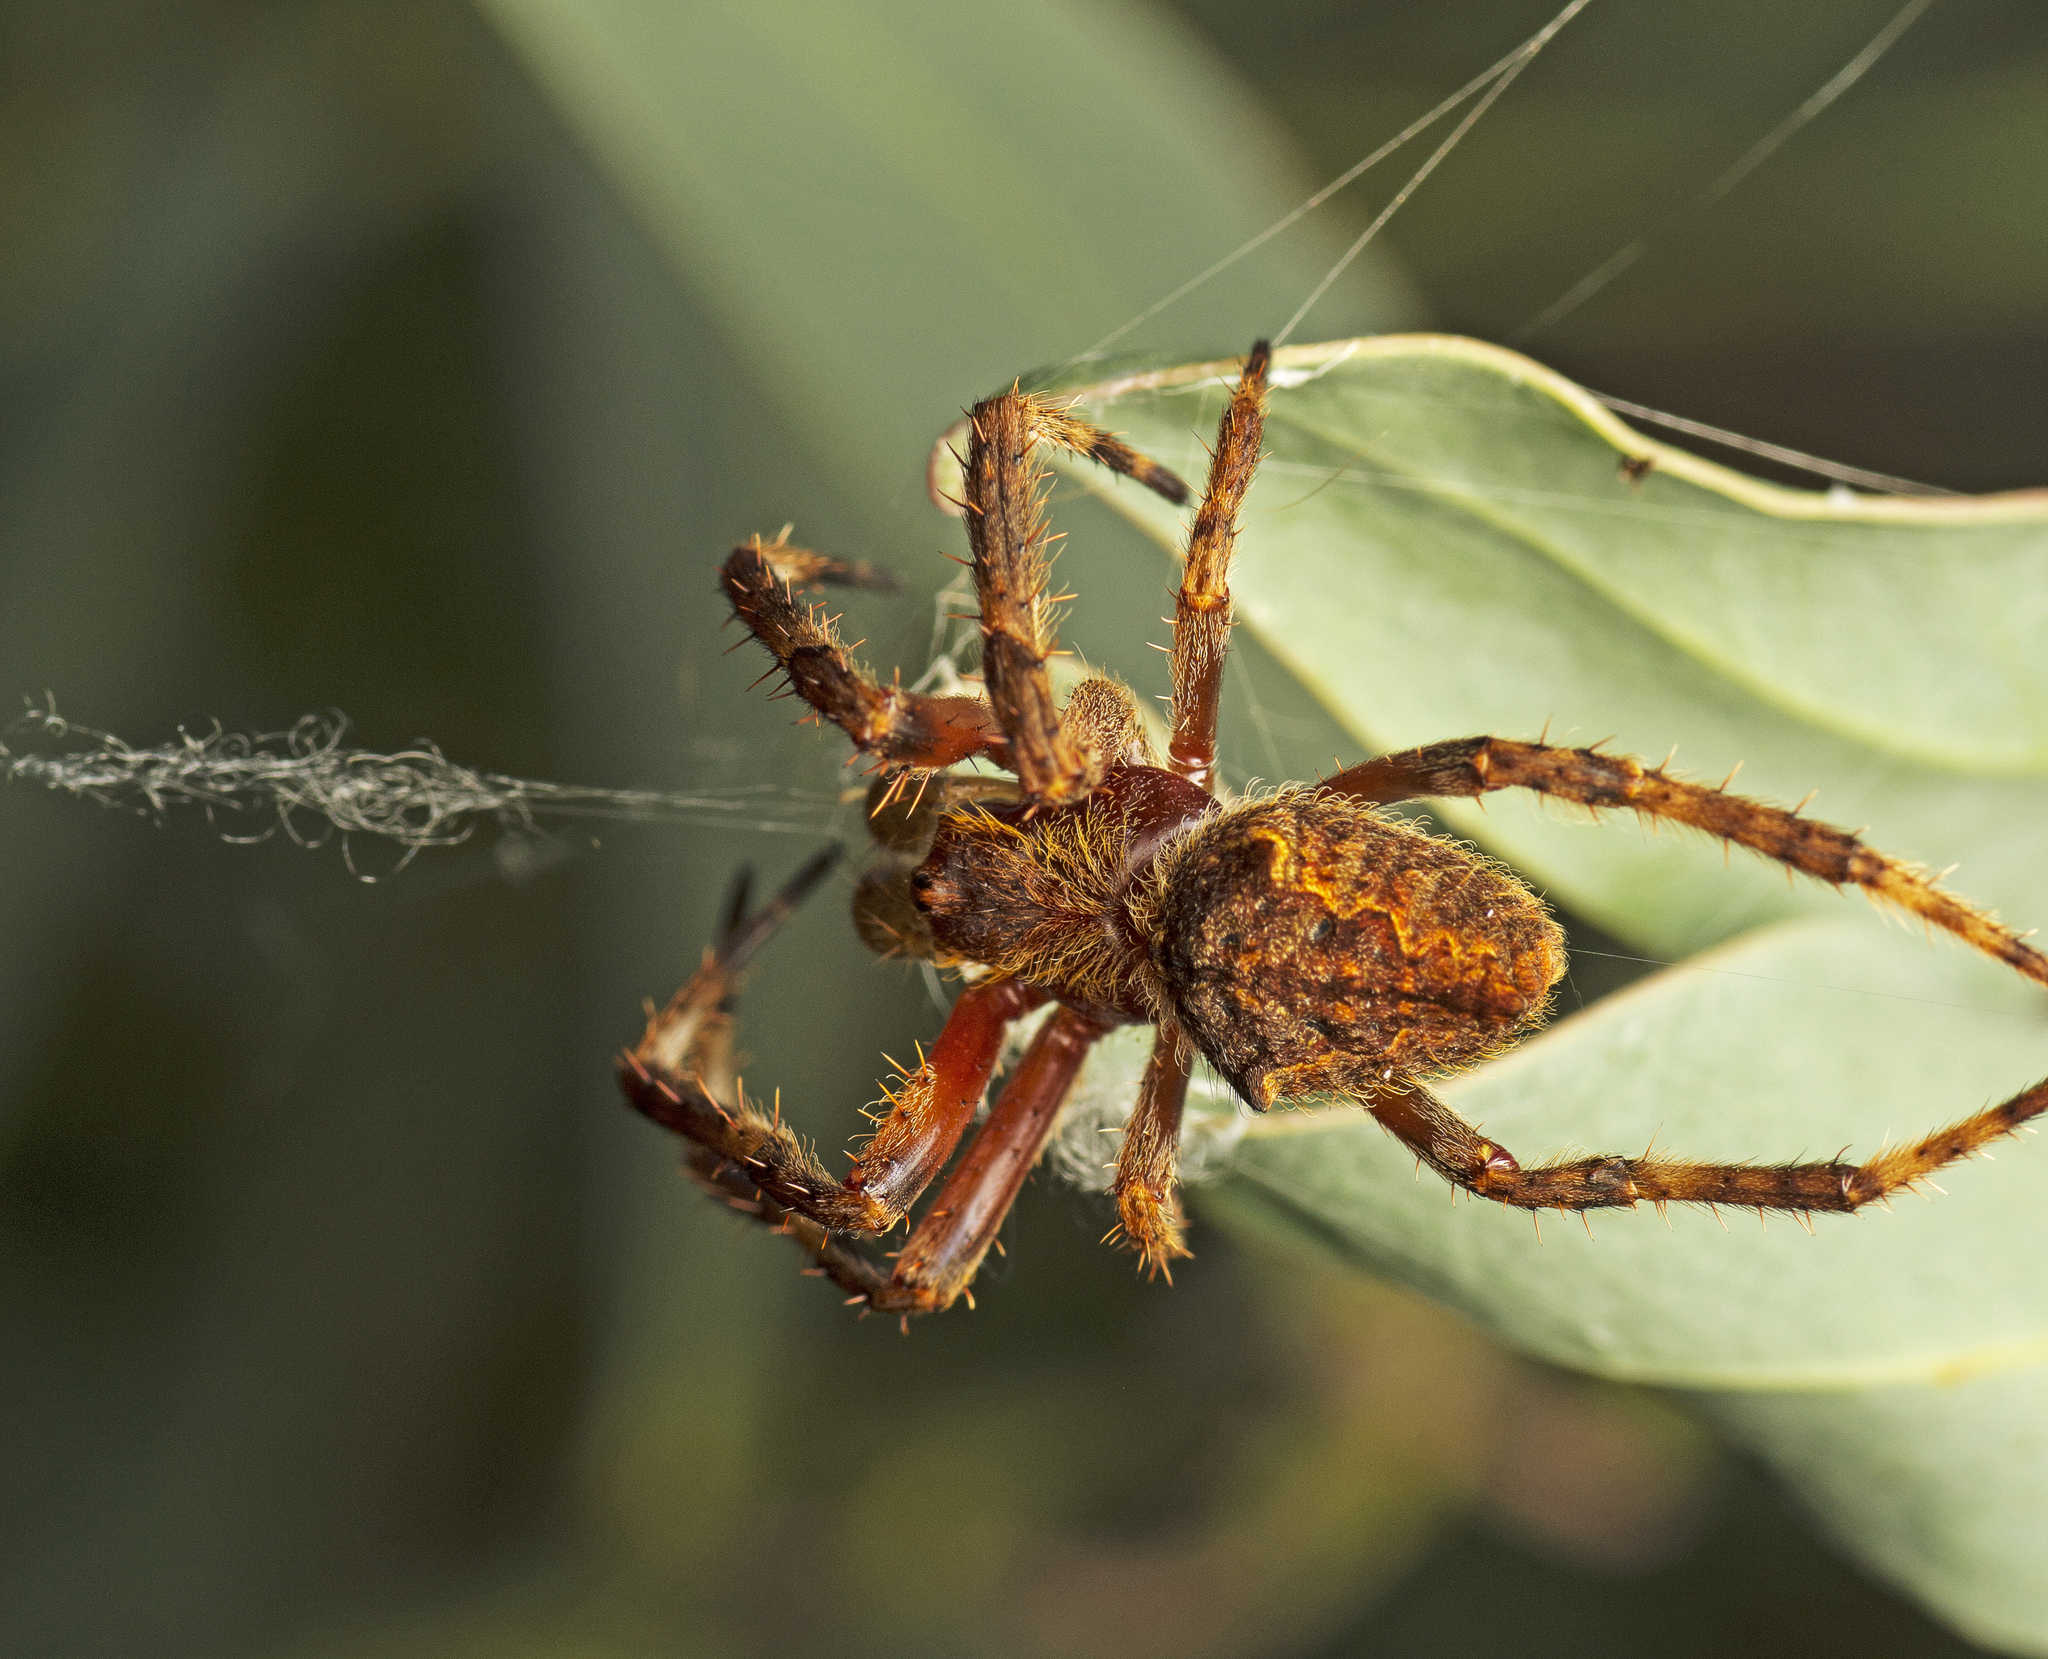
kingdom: Animalia
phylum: Arthropoda
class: Arachnida
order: Araneae
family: Araneidae
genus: Hortophora
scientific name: Hortophora
